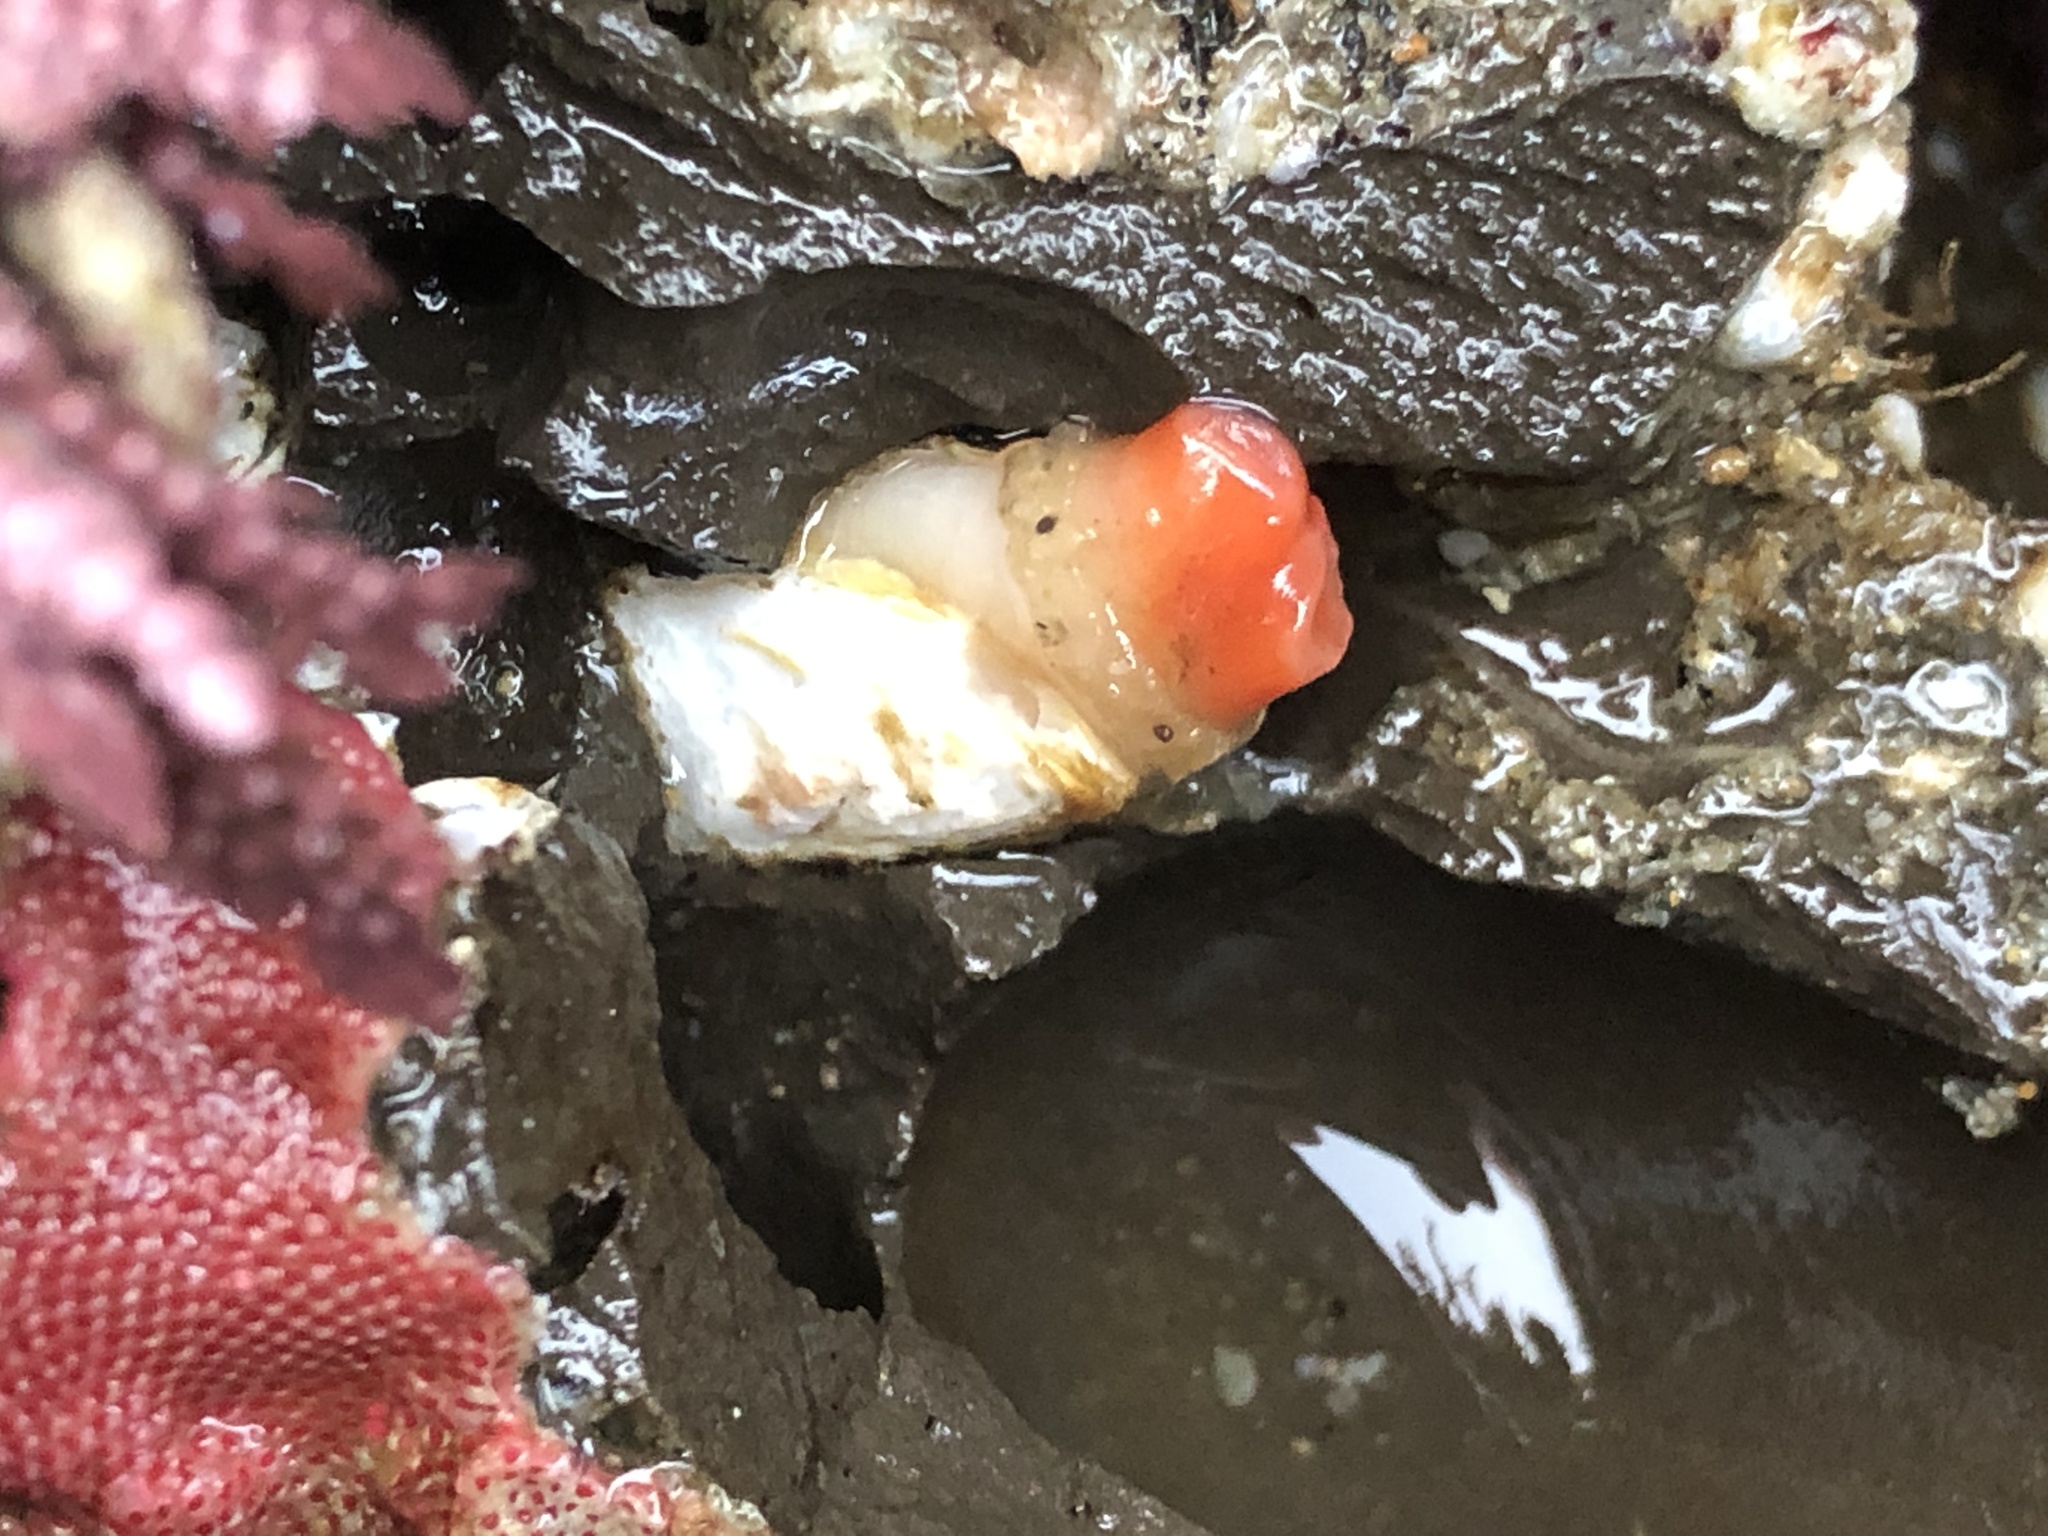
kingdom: Animalia
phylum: Mollusca
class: Bivalvia
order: Adapedonta
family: Hiatellidae
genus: Hiatella
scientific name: Hiatella arctica
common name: Arctic hiatella
